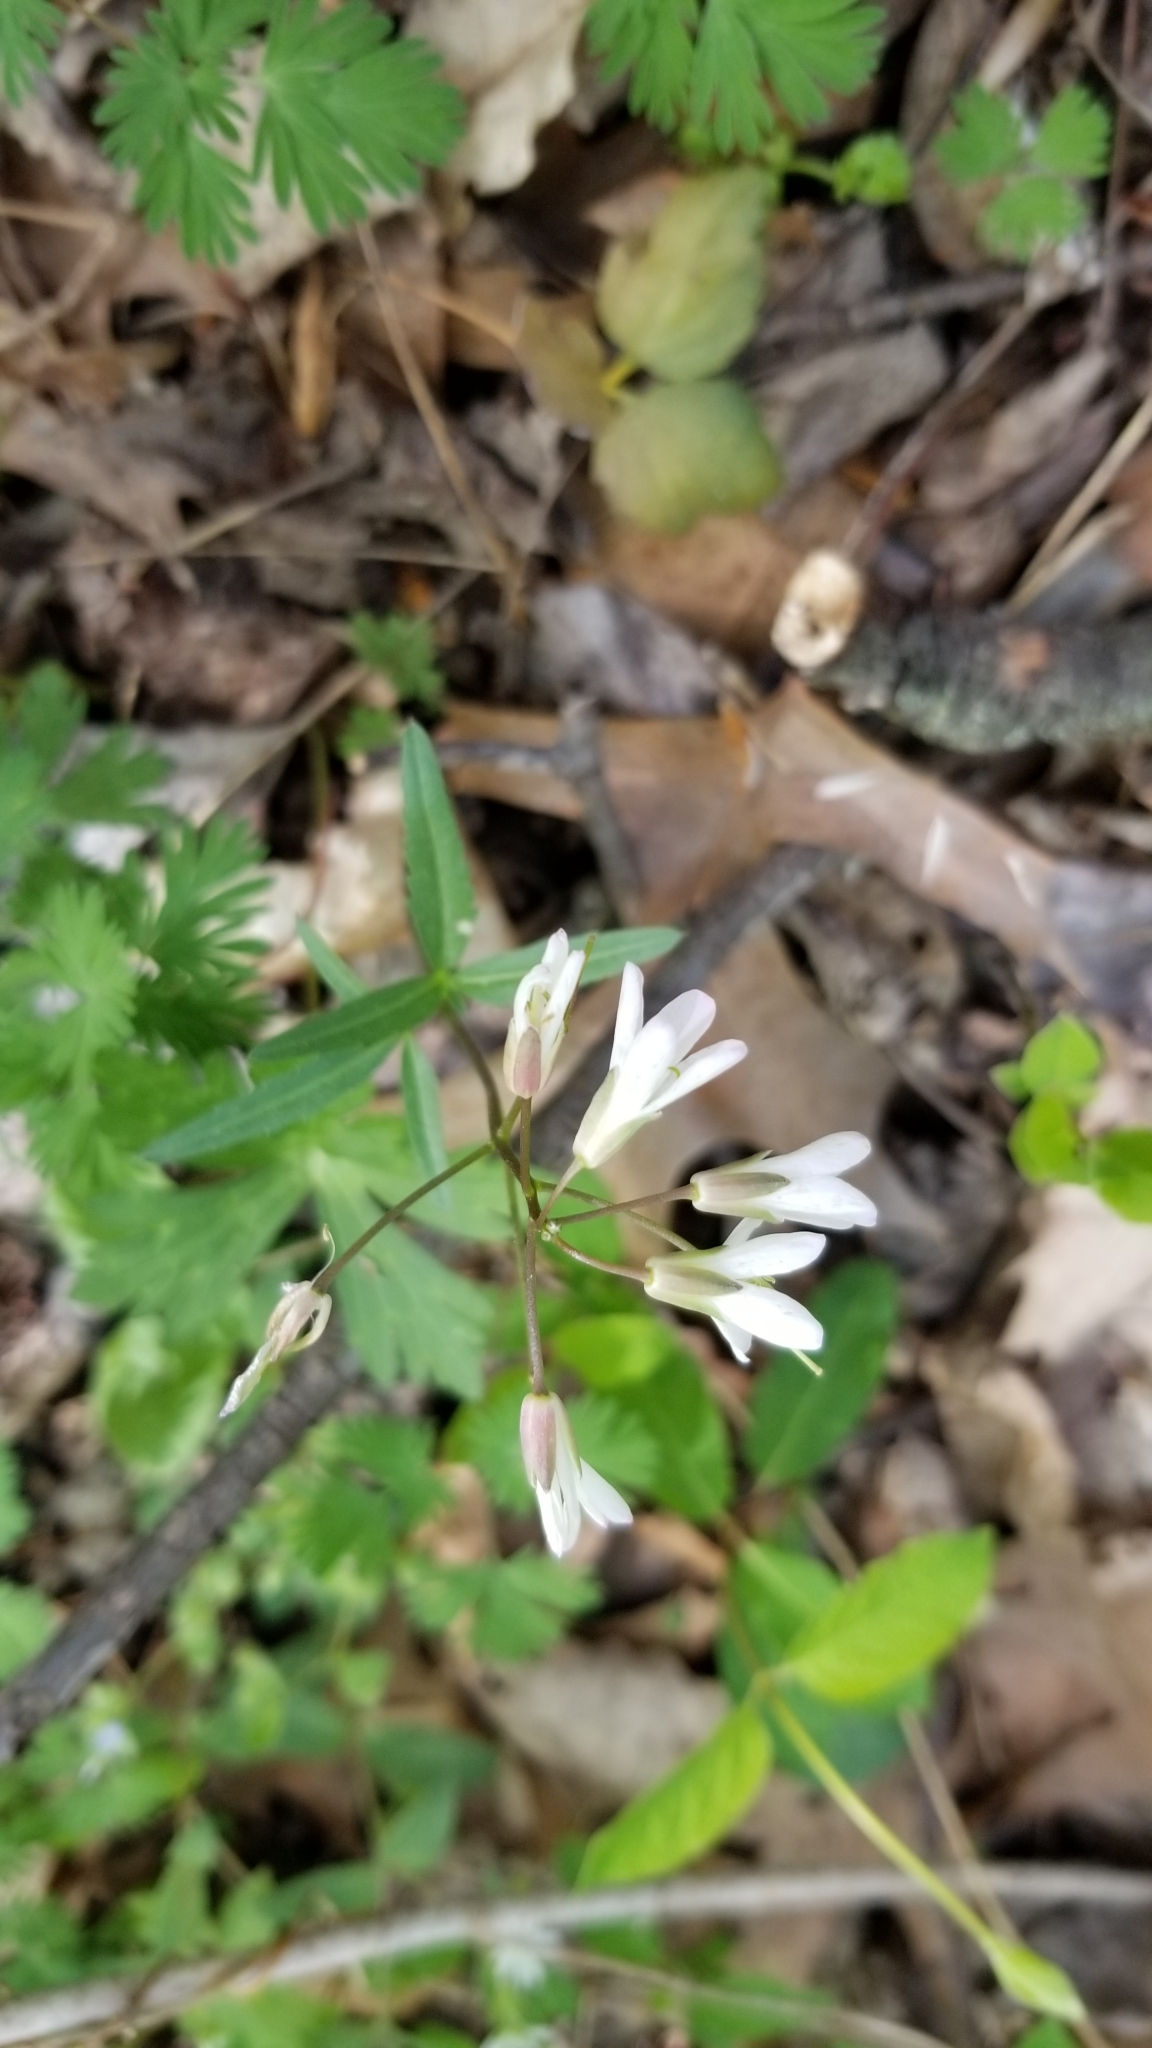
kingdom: Plantae
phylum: Tracheophyta
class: Magnoliopsida
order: Brassicales
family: Brassicaceae
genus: Cardamine
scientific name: Cardamine angustata
